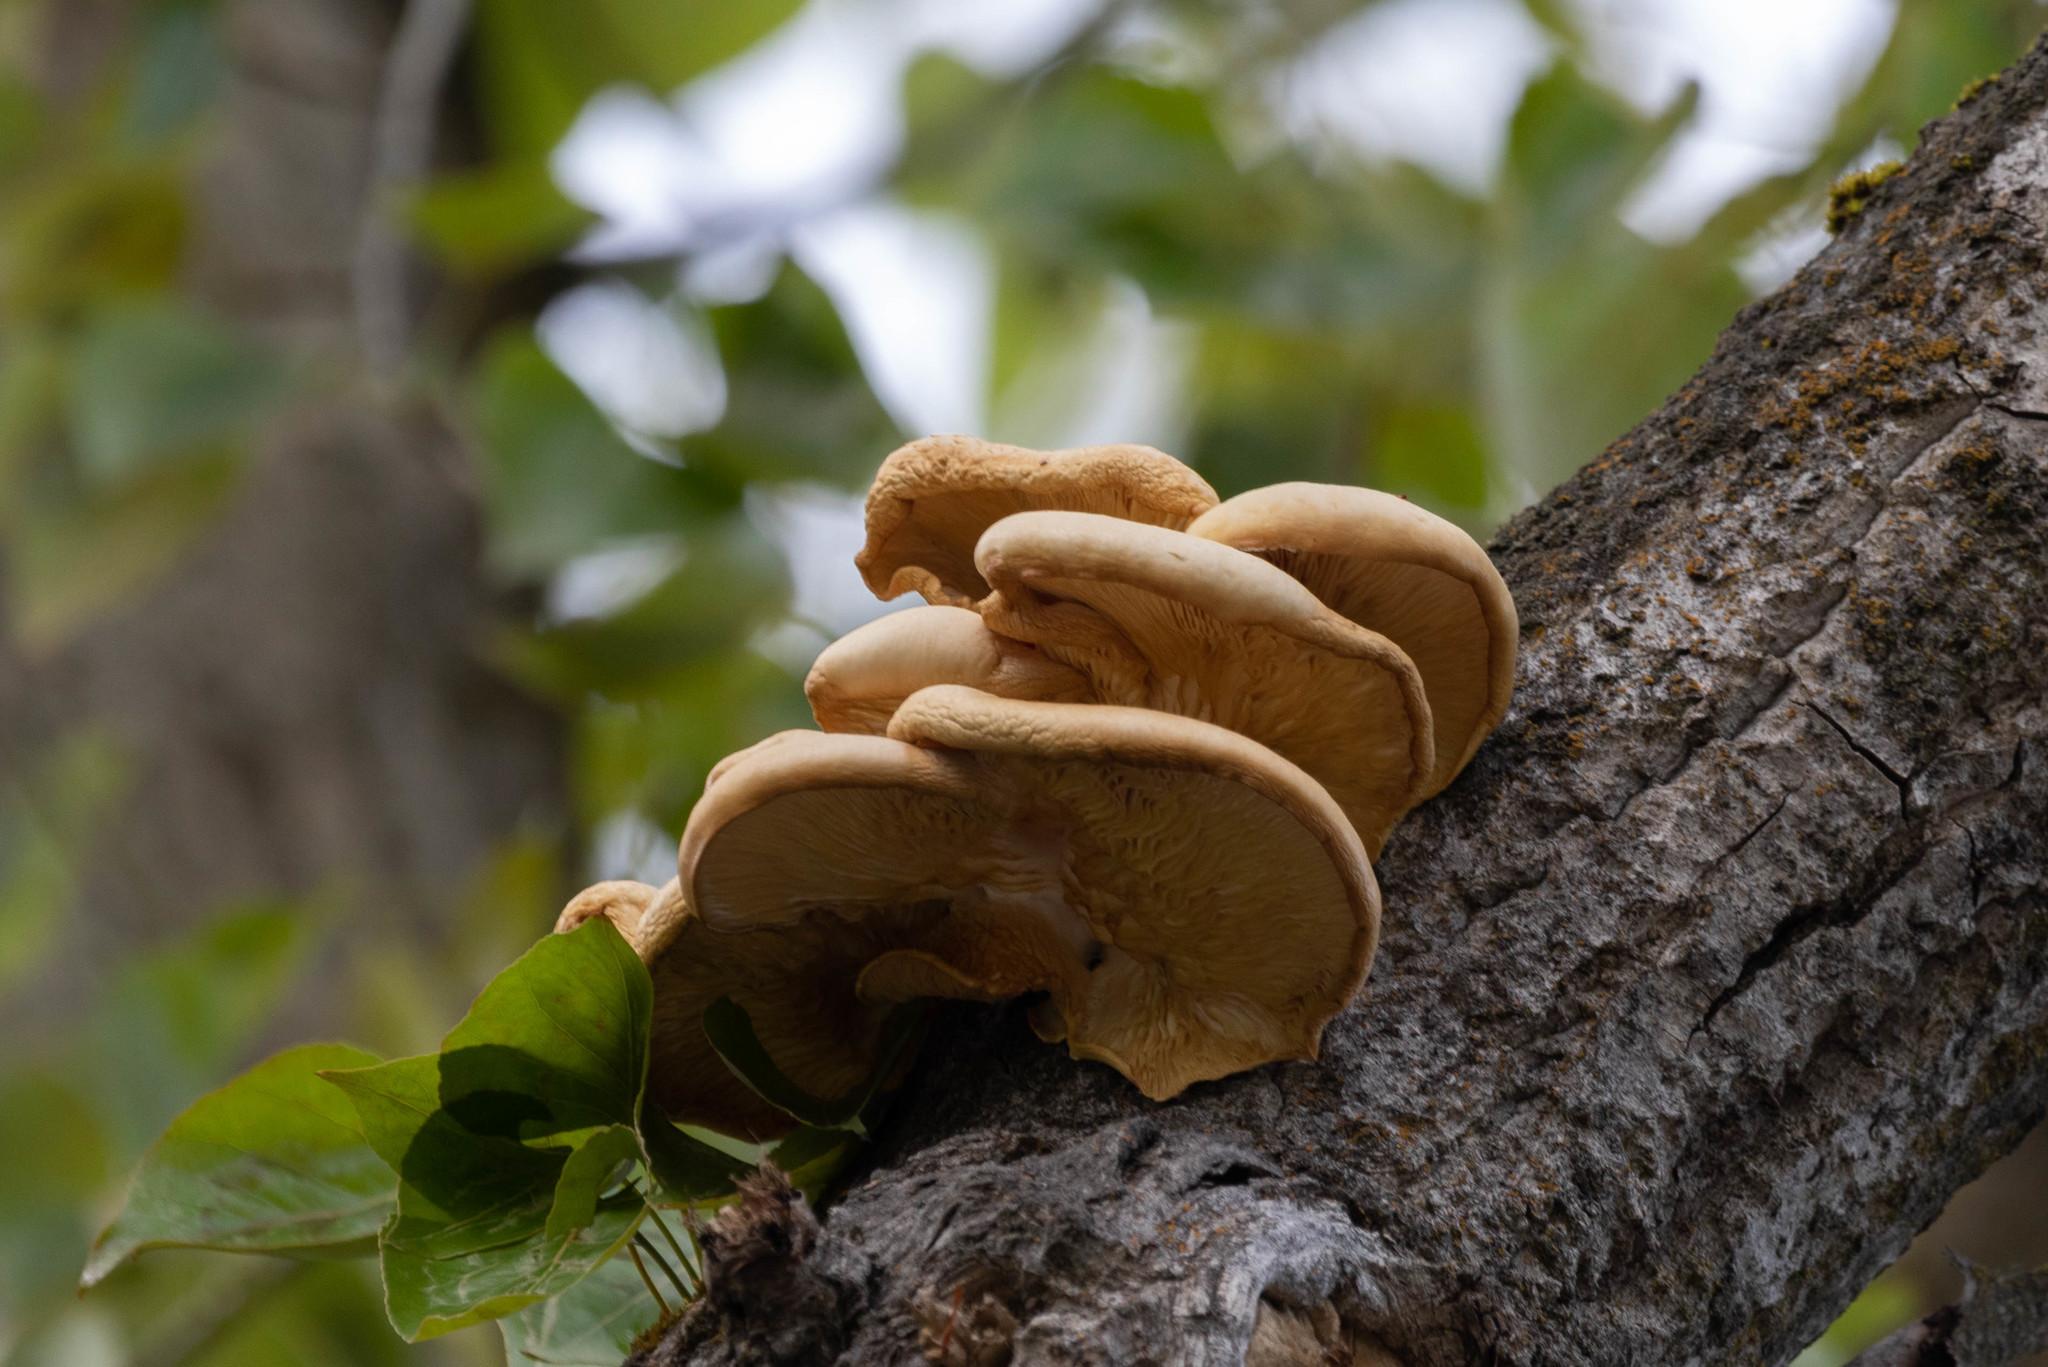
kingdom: Fungi
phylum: Basidiomycota
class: Agaricomycetes
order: Agaricales
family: Pleurotaceae
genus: Pleurotus
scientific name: Pleurotus populinus
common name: Aspen oyster mushroom
